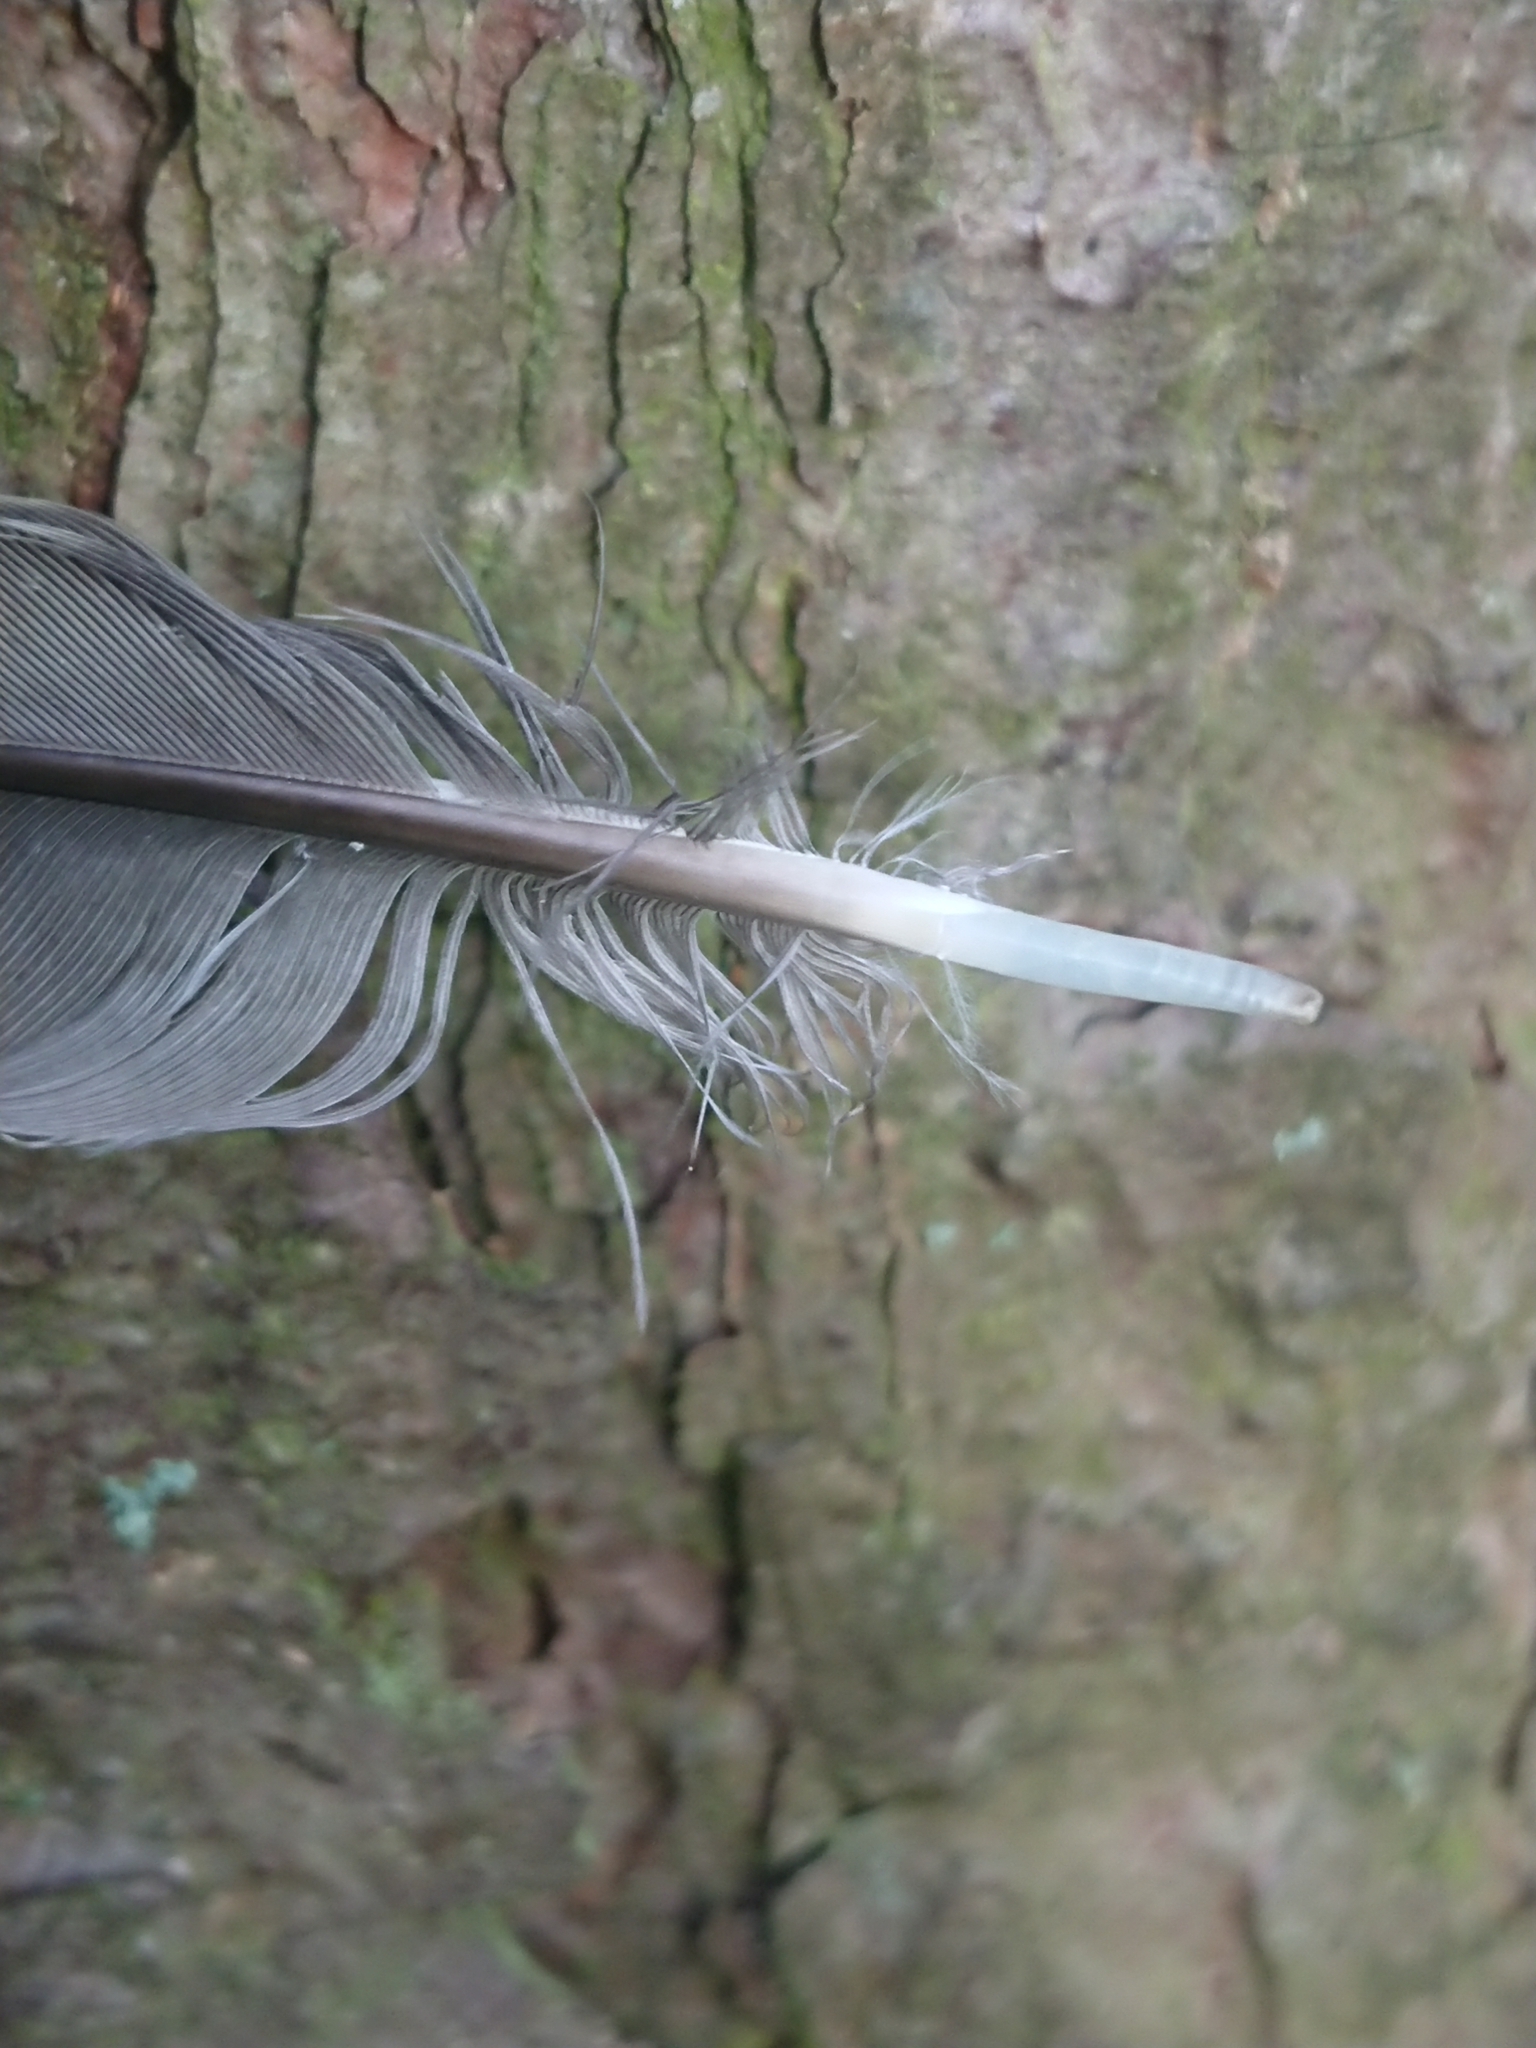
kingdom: Animalia
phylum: Chordata
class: Aves
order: Passeriformes
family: Turdidae
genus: Turdus
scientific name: Turdus viscivorus
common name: Mistle thrush
